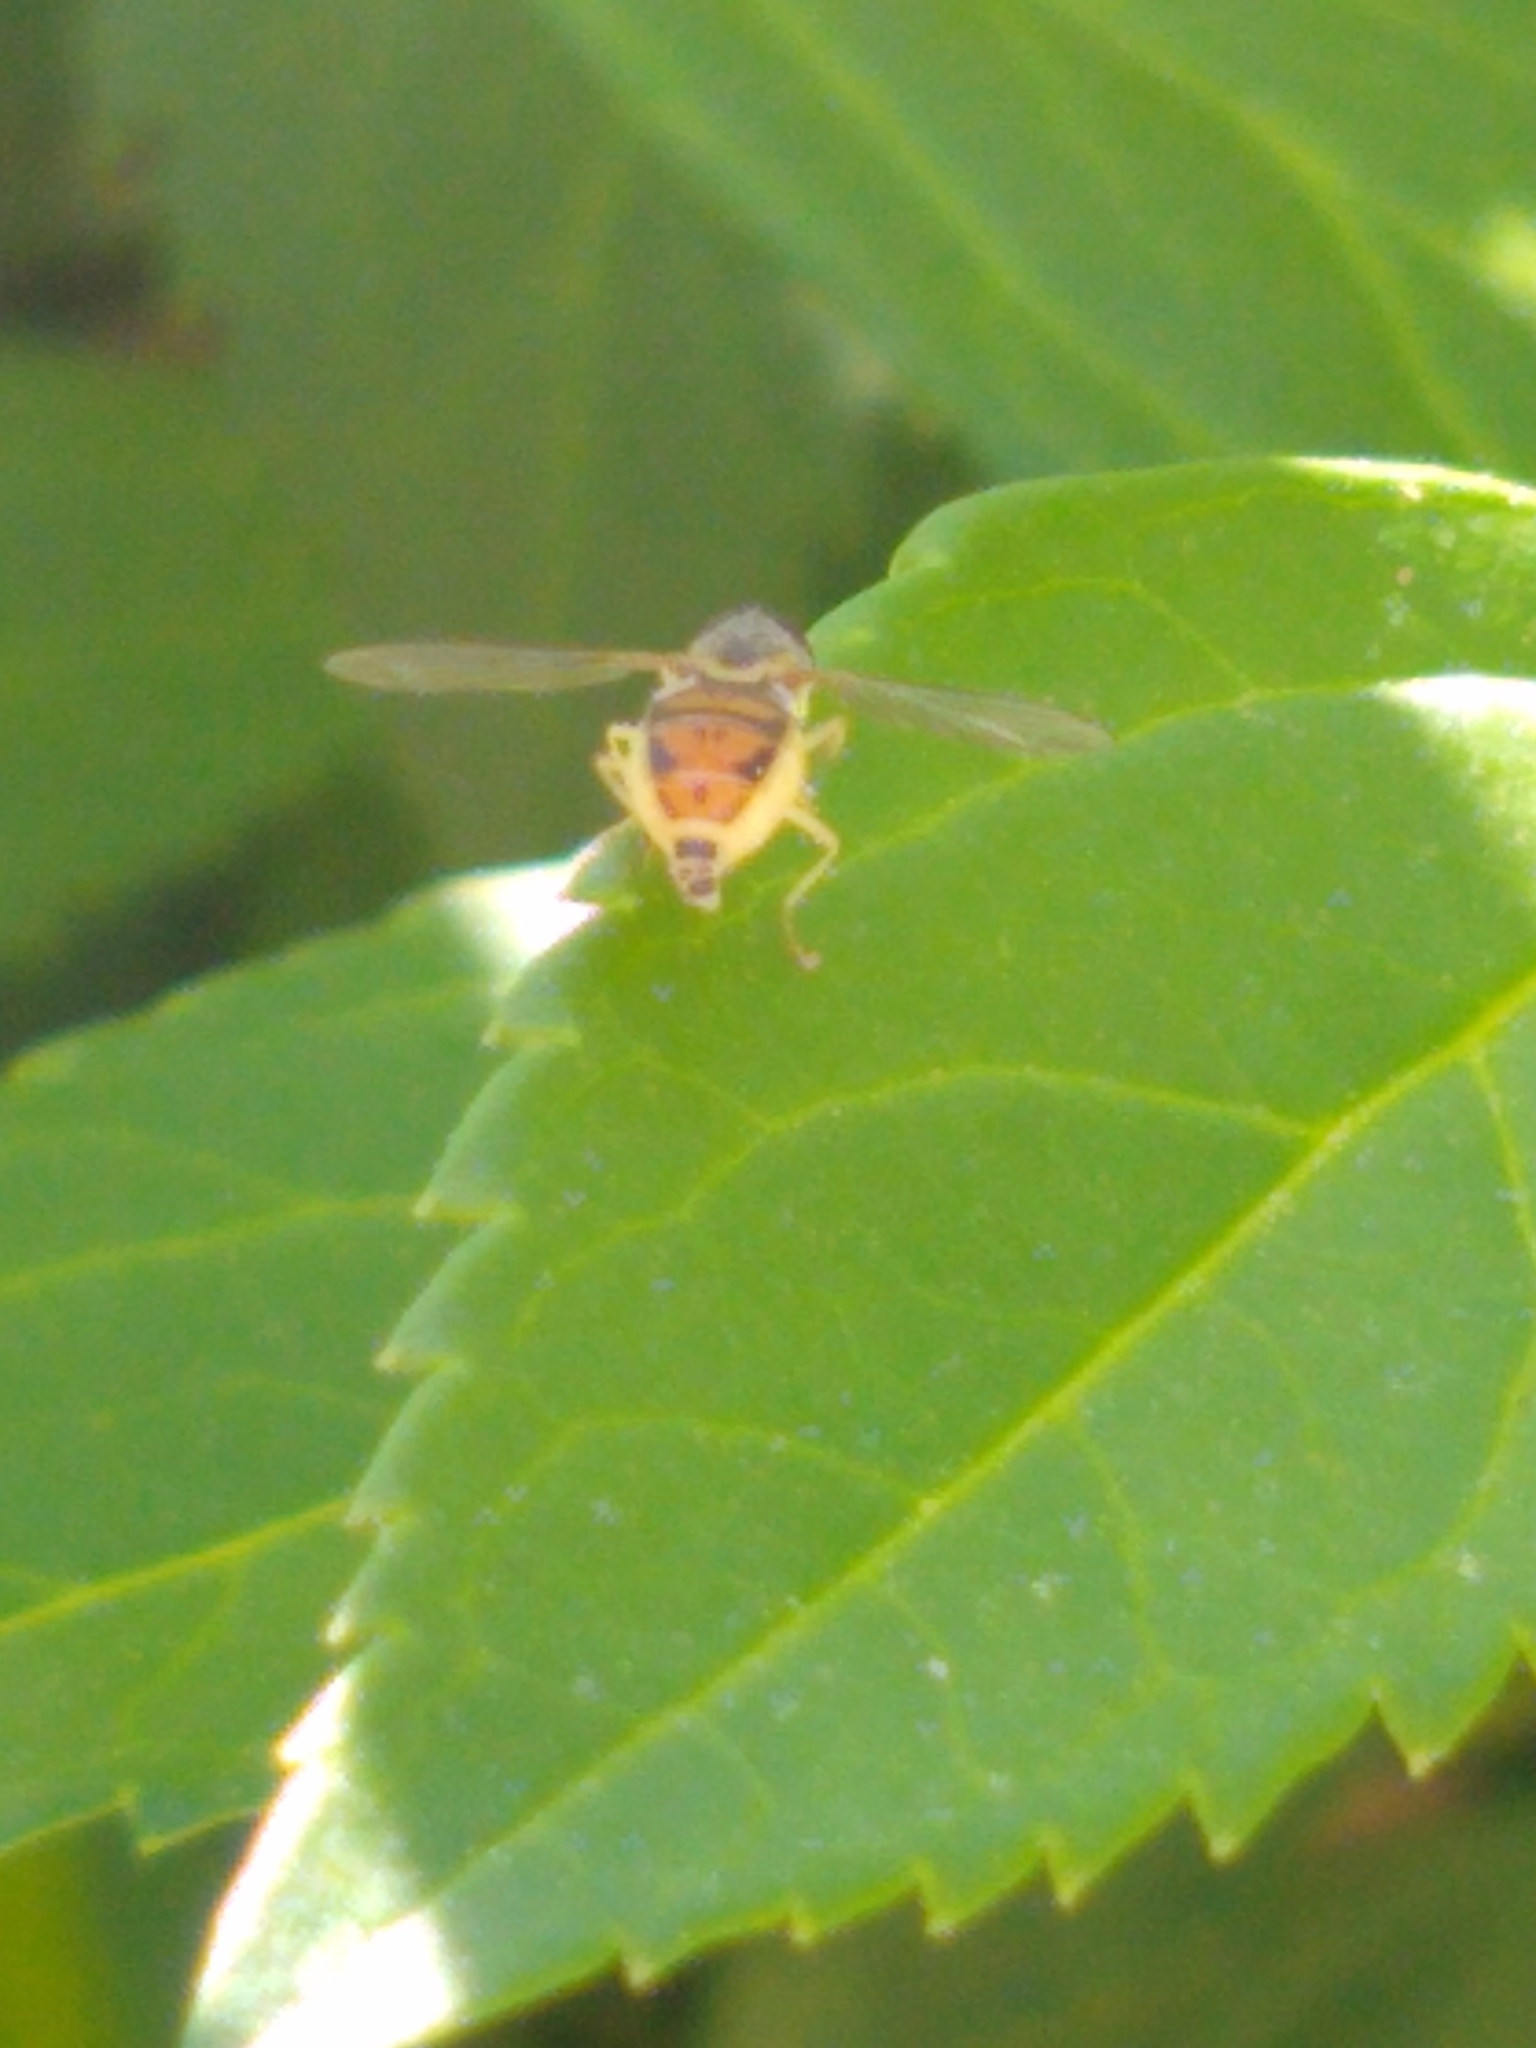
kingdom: Animalia
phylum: Arthropoda
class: Insecta
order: Diptera
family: Syrphidae
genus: Toxomerus
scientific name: Toxomerus marginatus
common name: Syrphid fly
